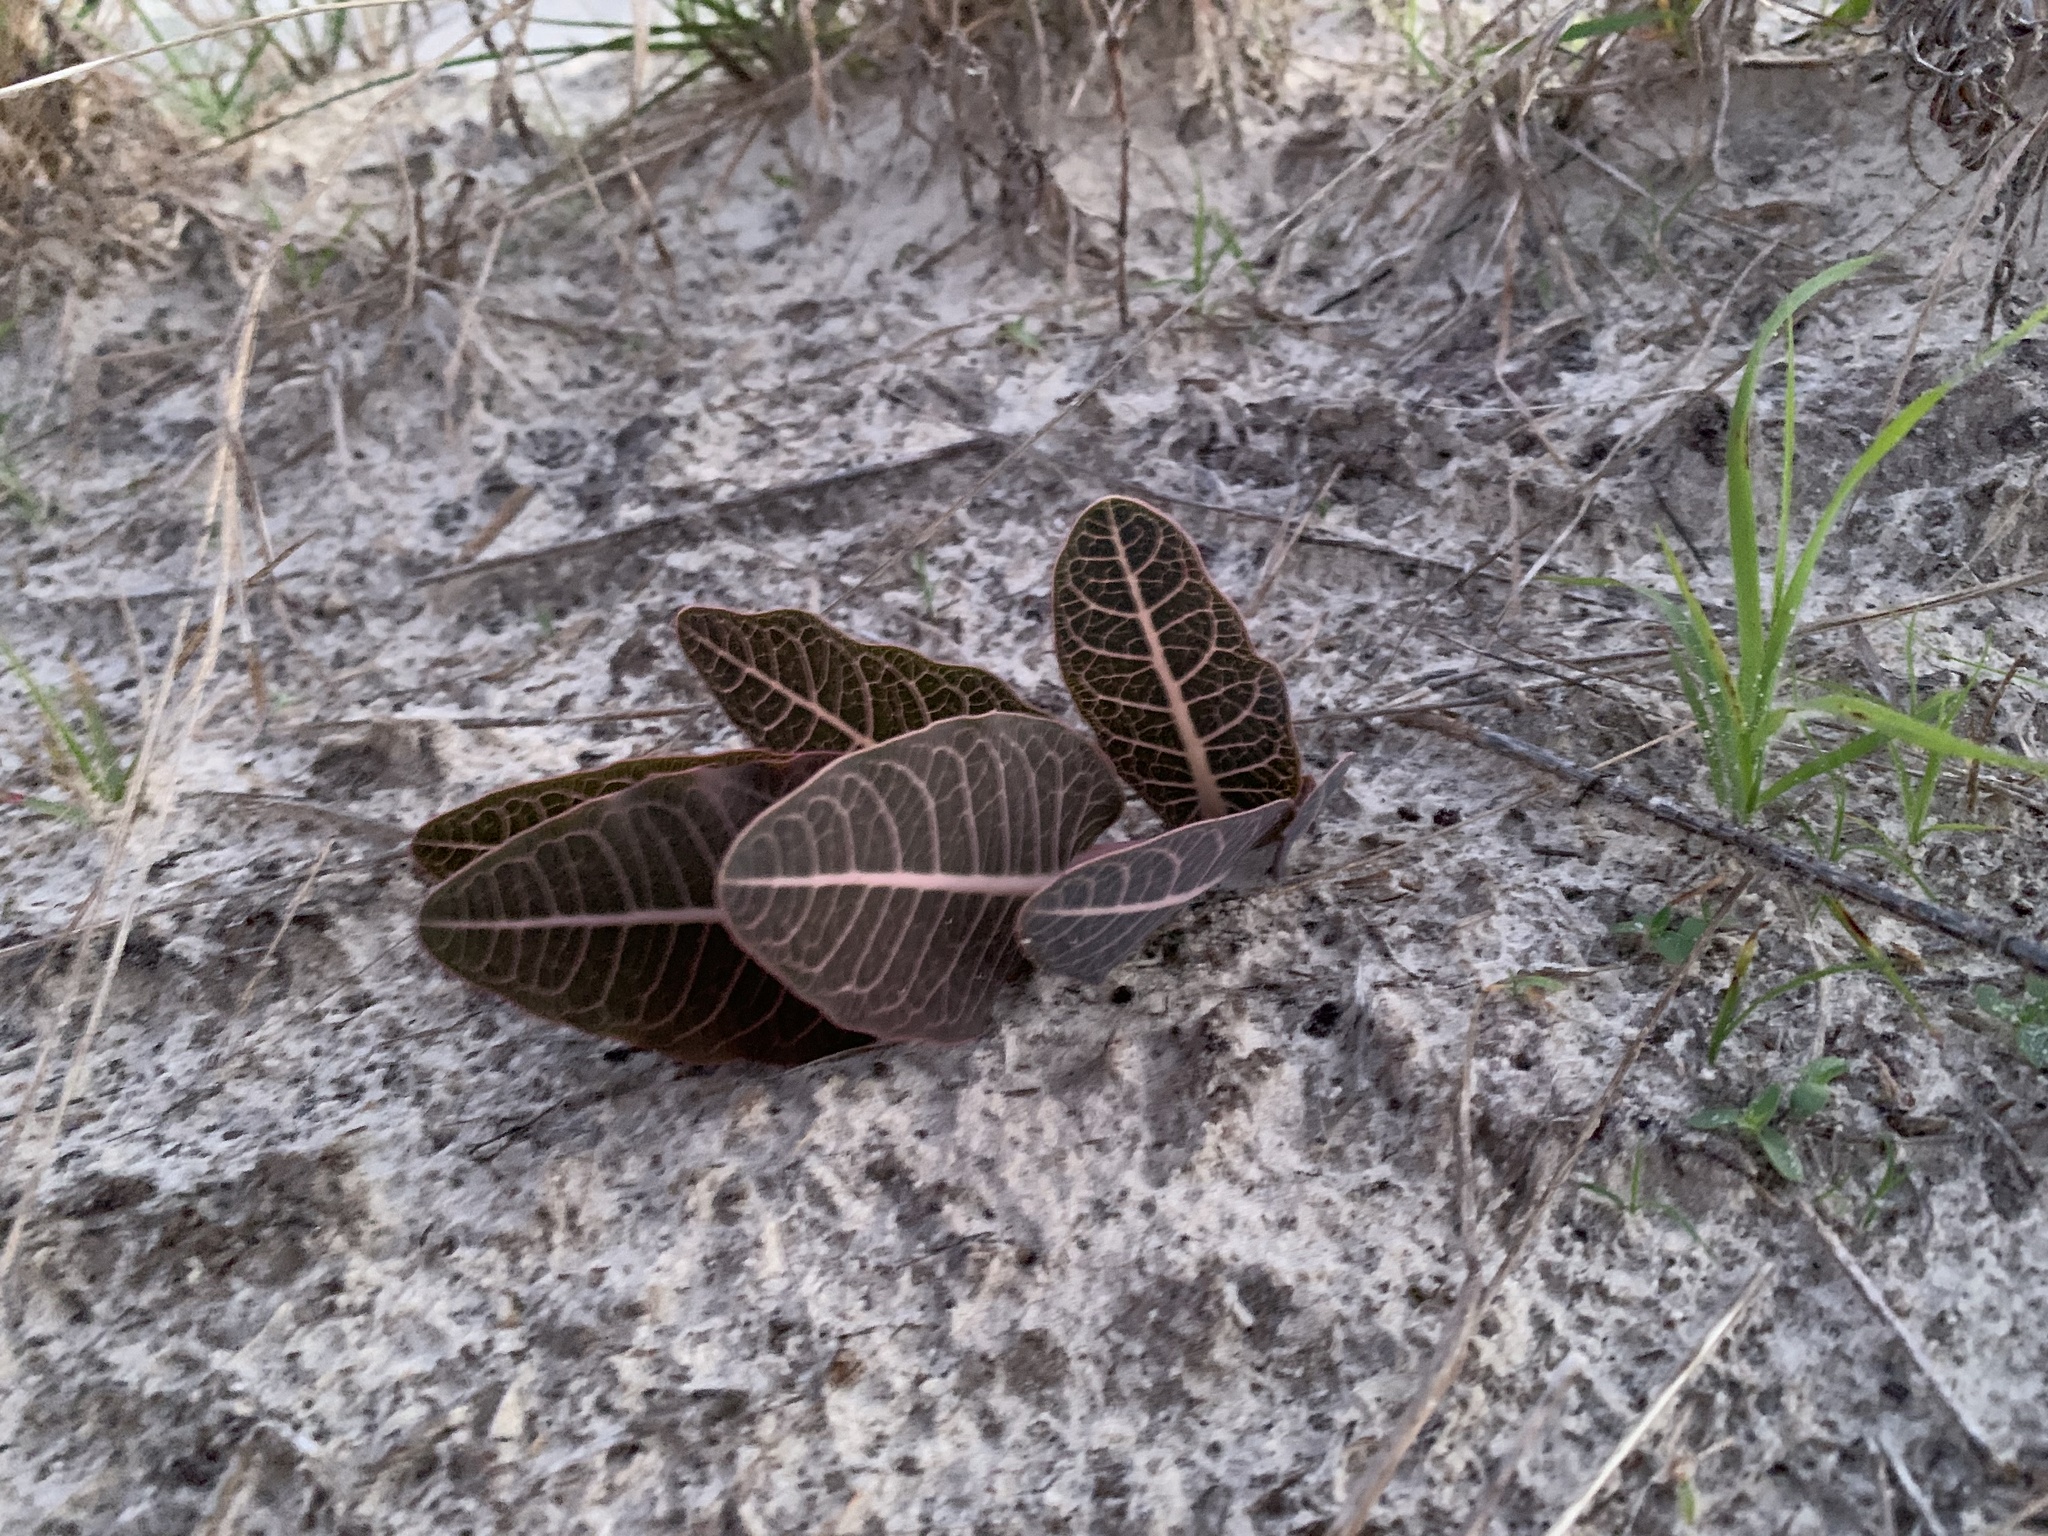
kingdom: Plantae
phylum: Tracheophyta
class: Magnoliopsida
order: Gentianales
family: Apocynaceae
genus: Asclepias
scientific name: Asclepias humistrata
